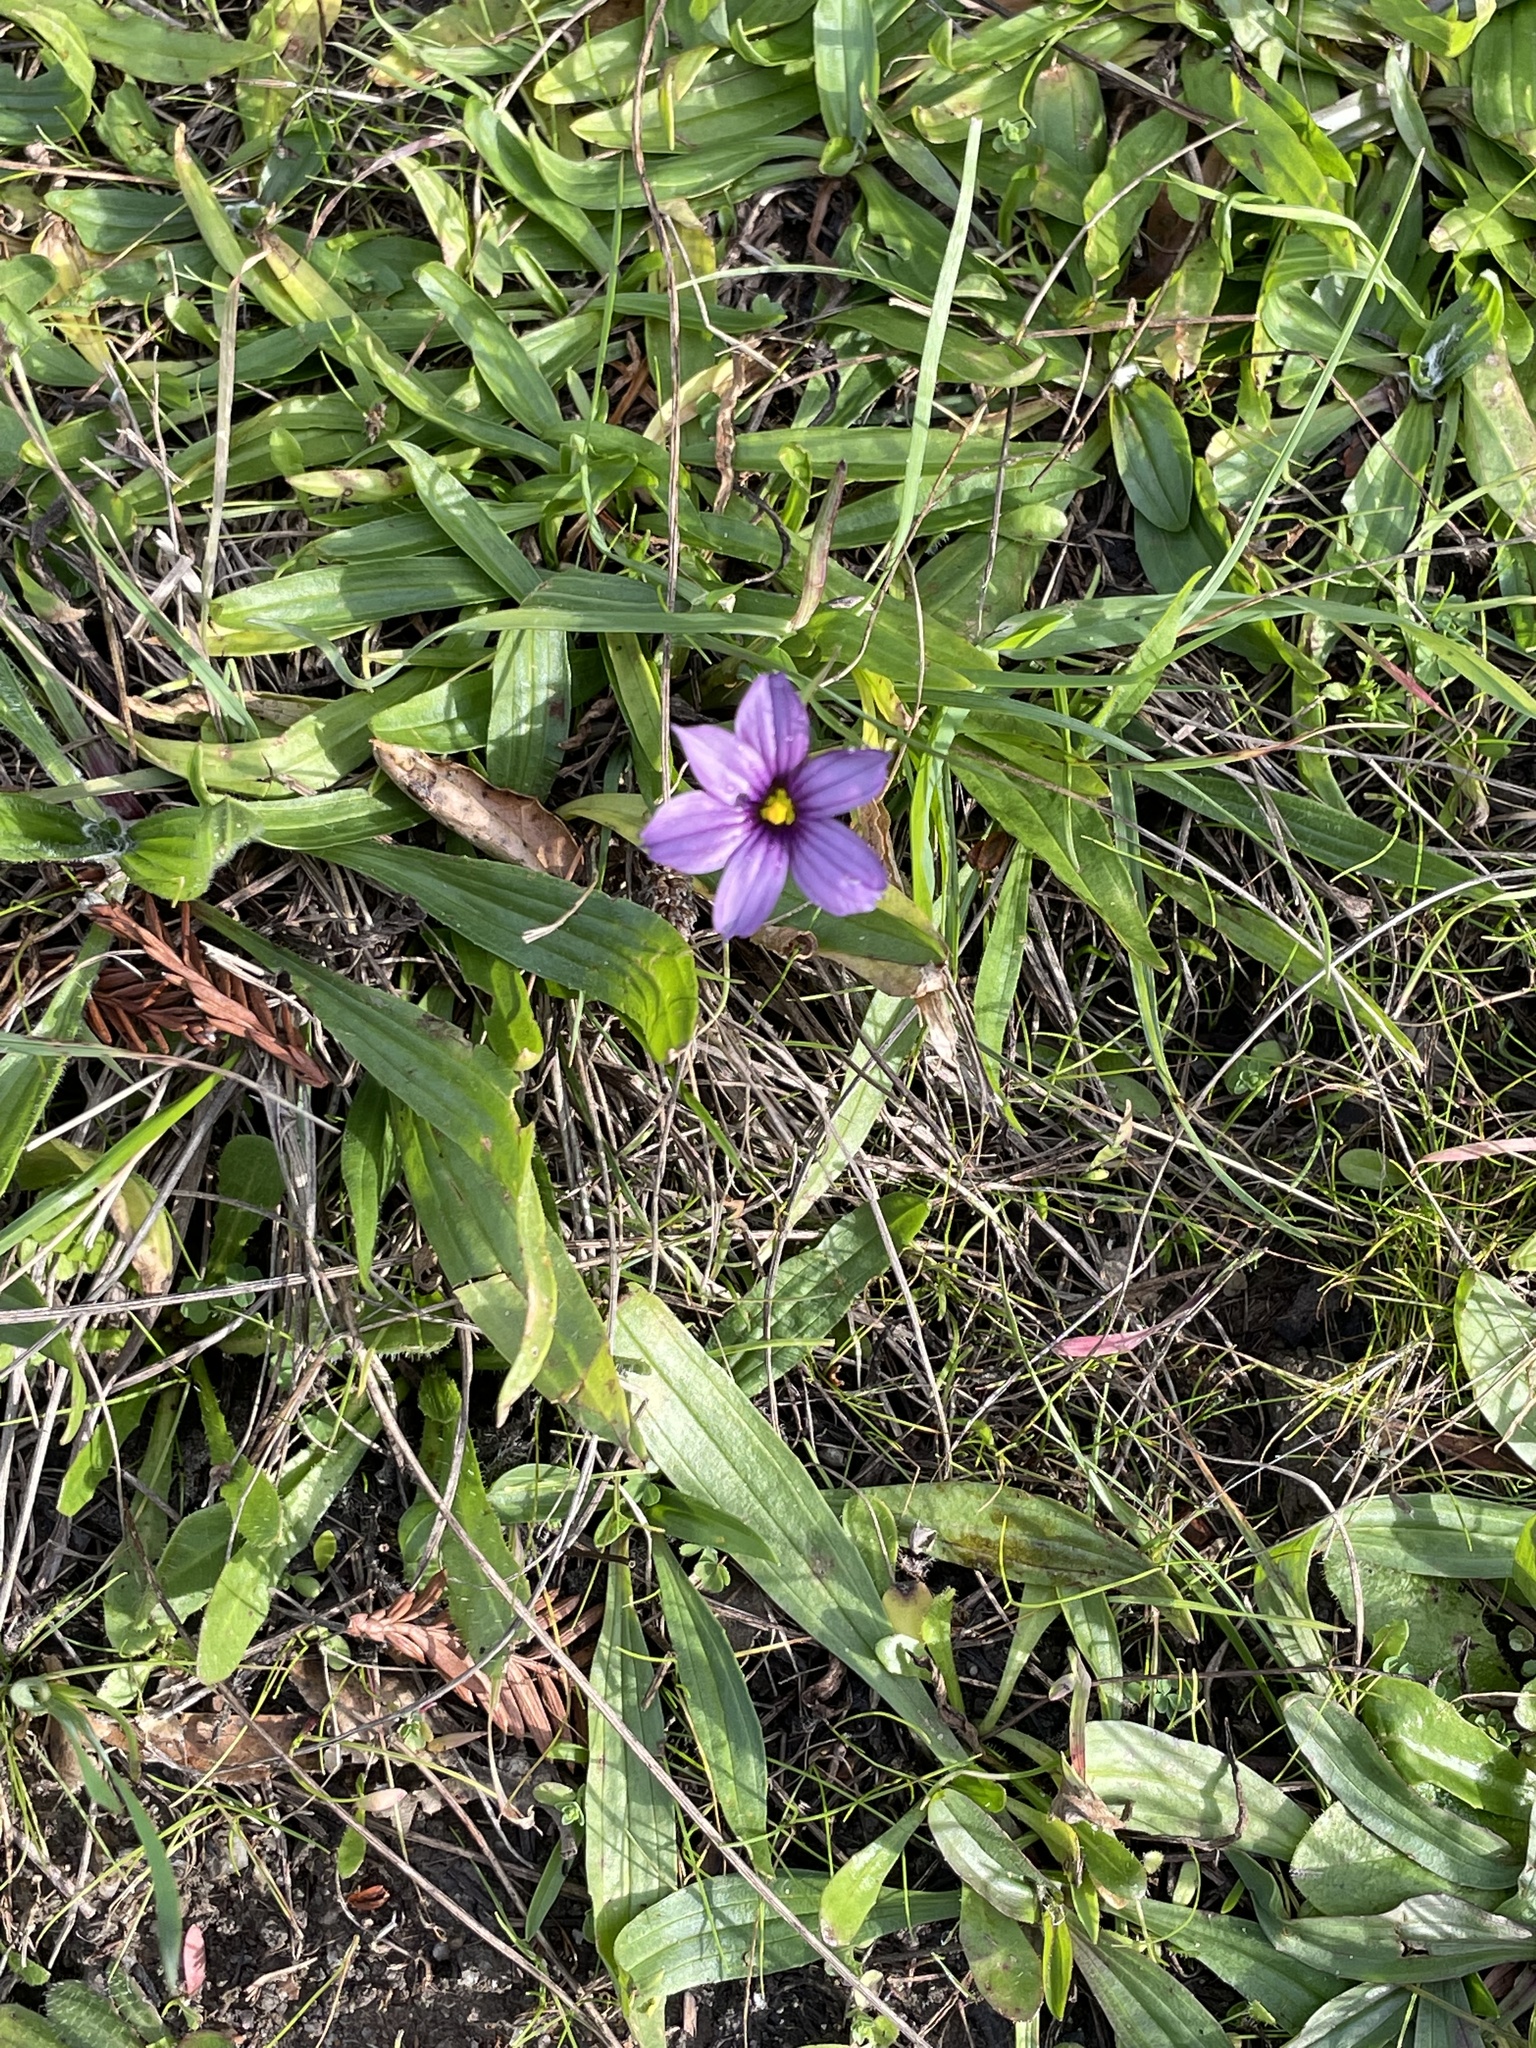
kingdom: Plantae
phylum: Tracheophyta
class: Liliopsida
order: Asparagales
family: Iridaceae
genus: Sisyrinchium
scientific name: Sisyrinchium bellum
